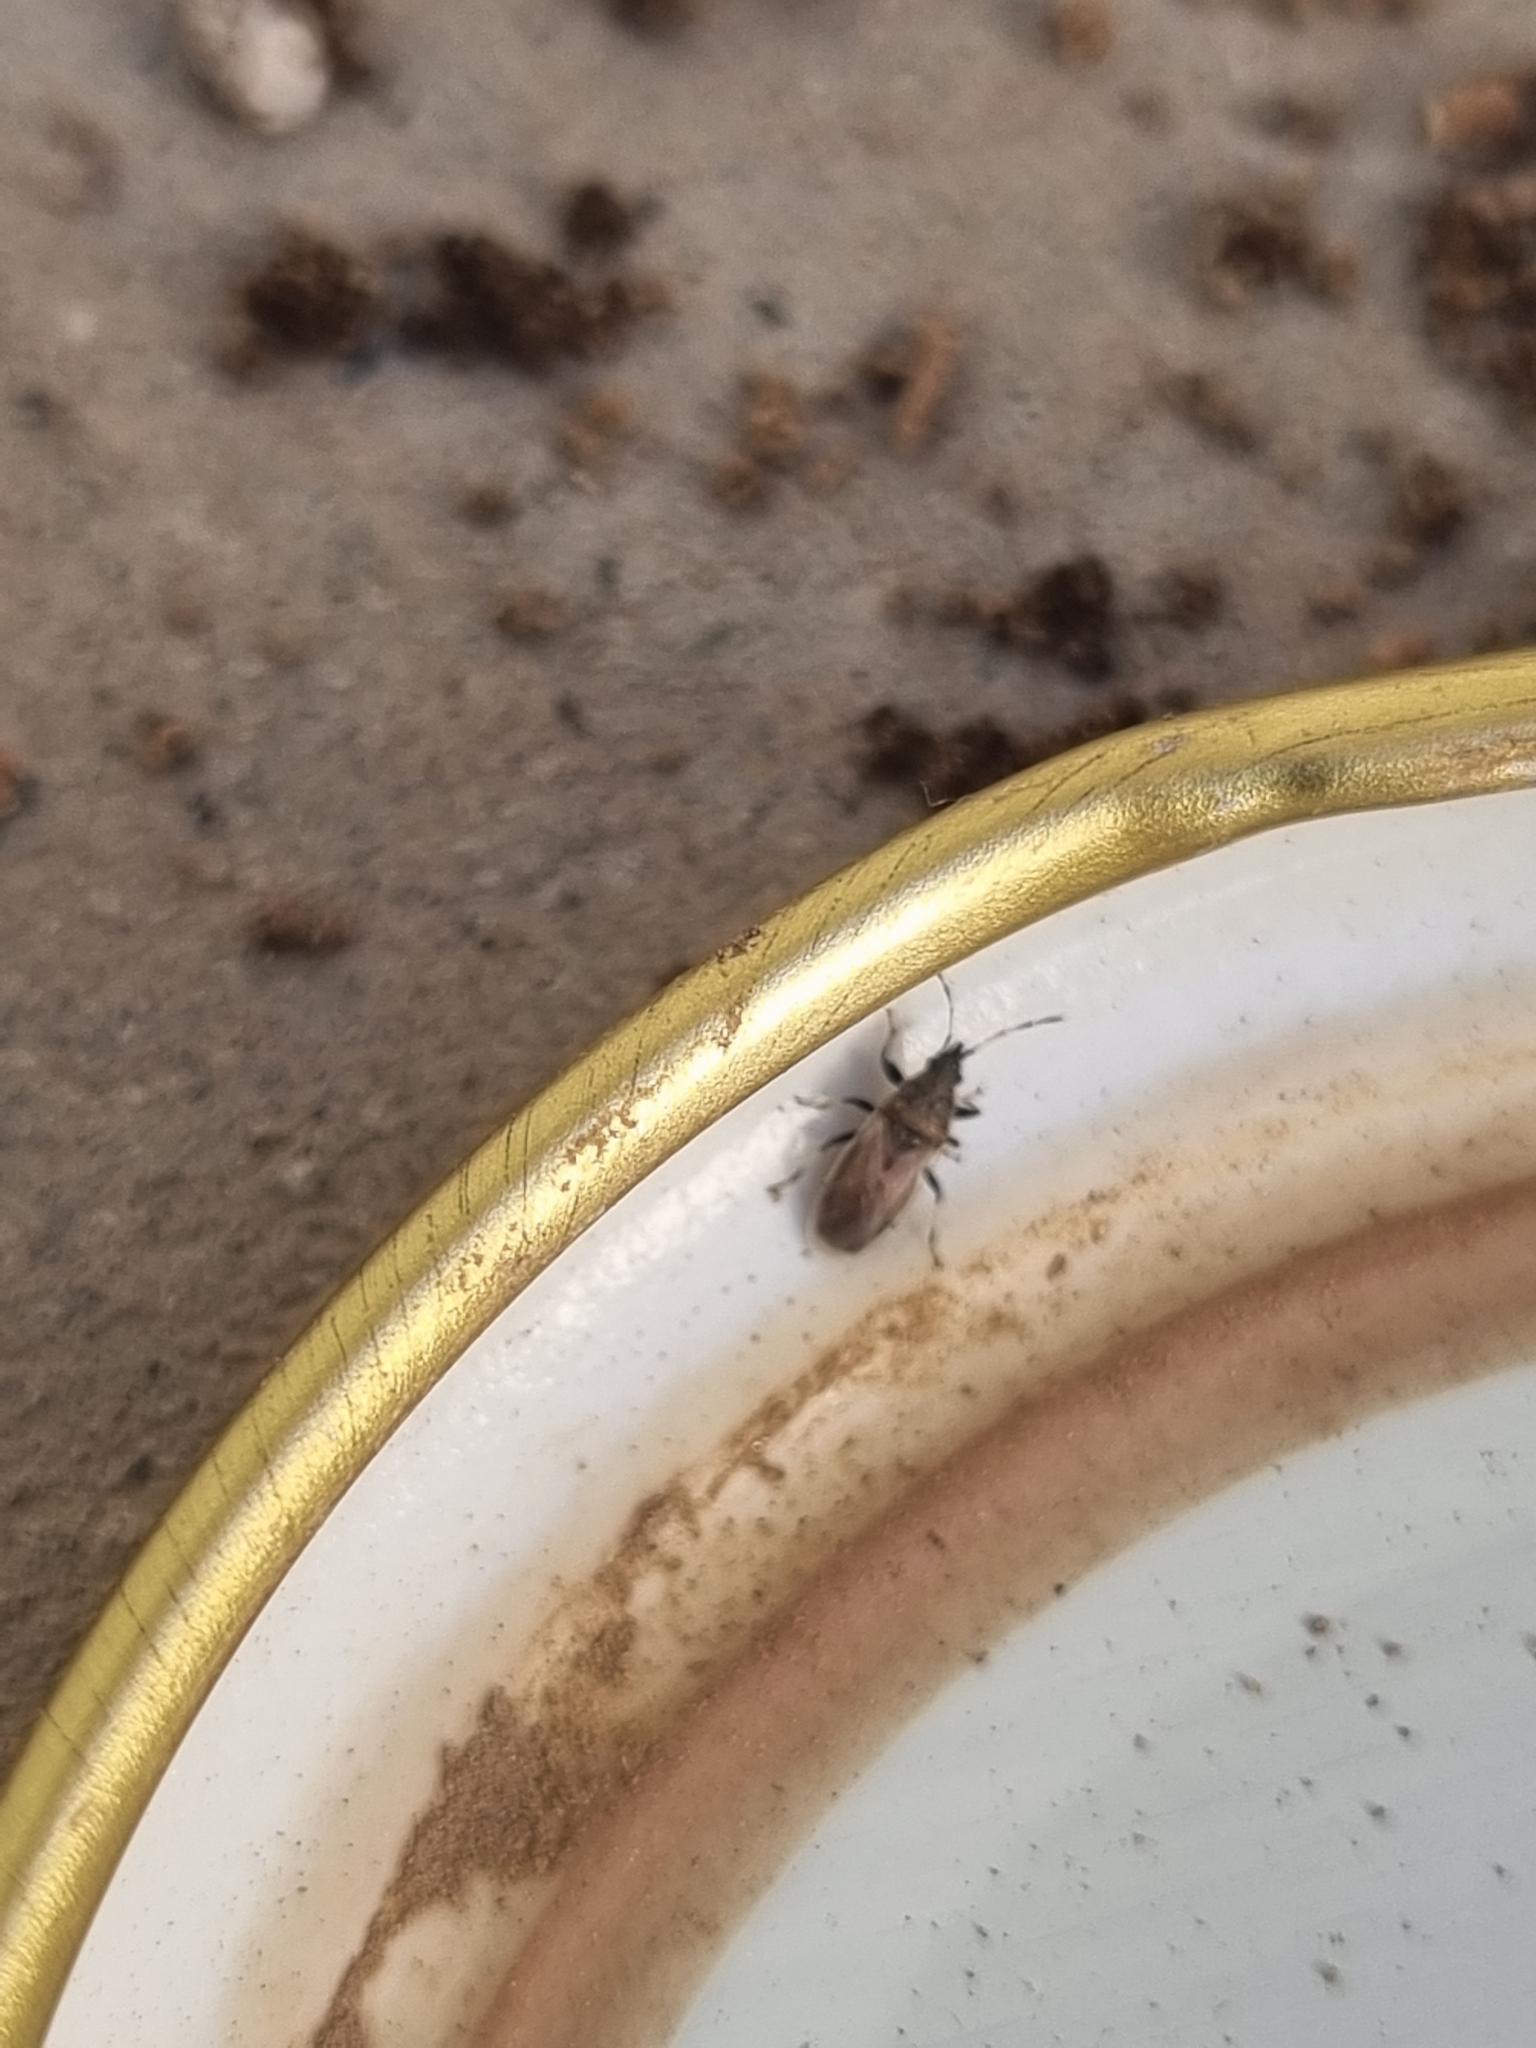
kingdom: Animalia
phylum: Arthropoda
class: Insecta
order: Hemiptera
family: Oxycarenidae
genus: Oxycarenus
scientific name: Oxycarenus hyalinipennis
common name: Cotton seed bug
